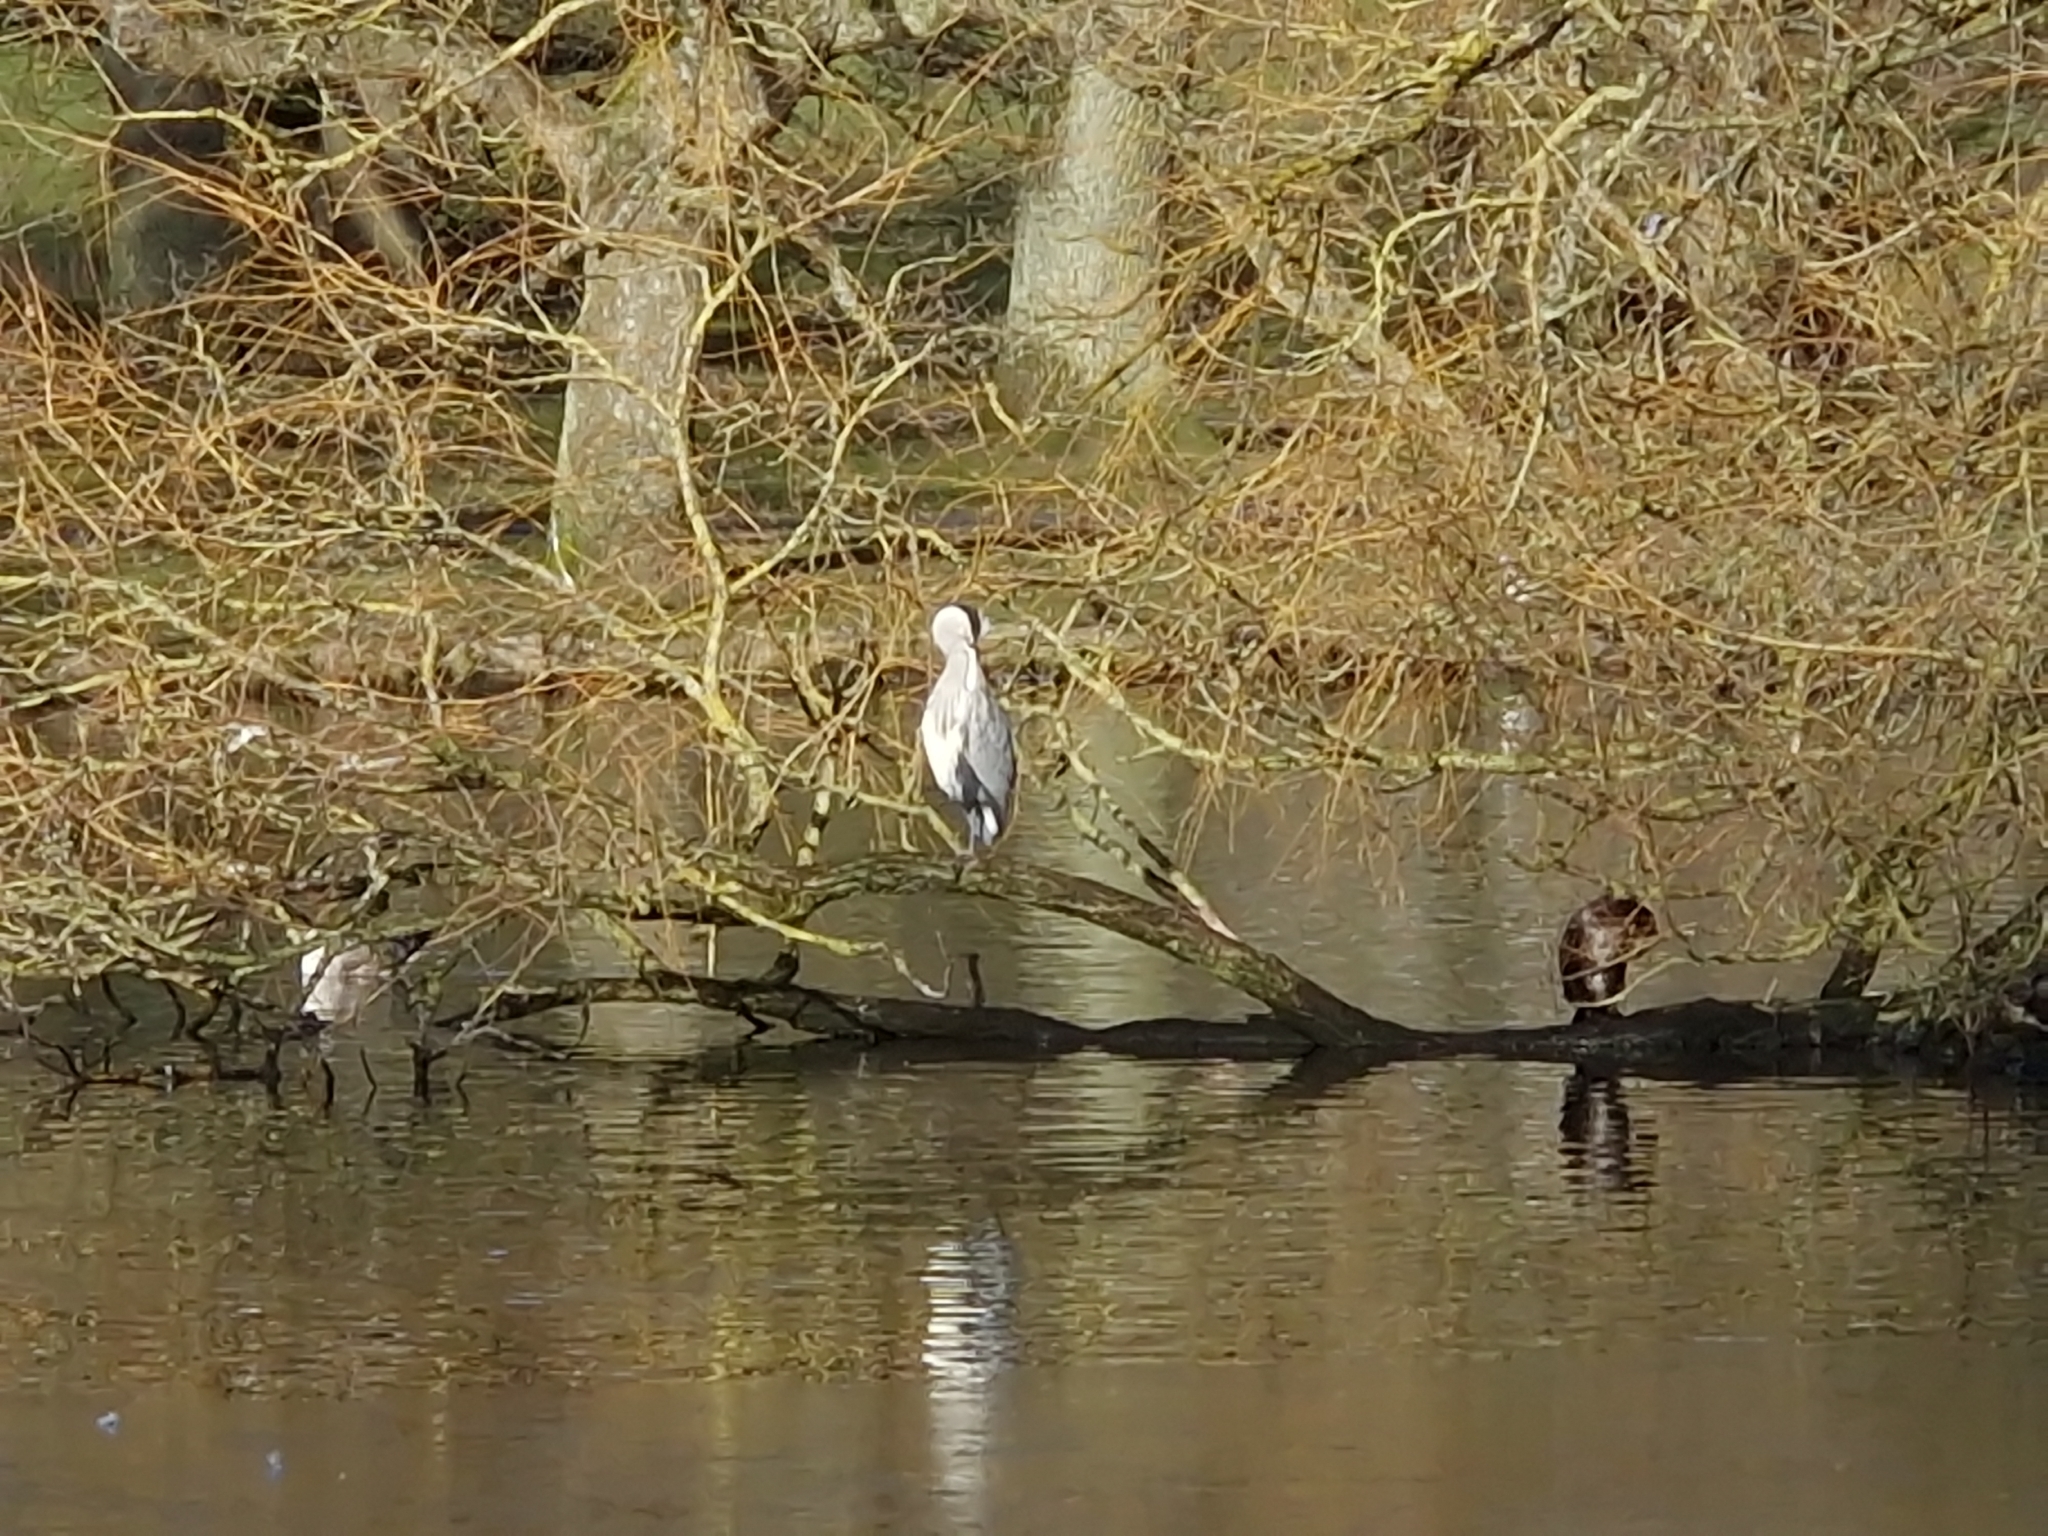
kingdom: Animalia
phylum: Chordata
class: Aves
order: Pelecaniformes
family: Ardeidae
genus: Ardea
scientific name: Ardea cinerea
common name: Grey heron
